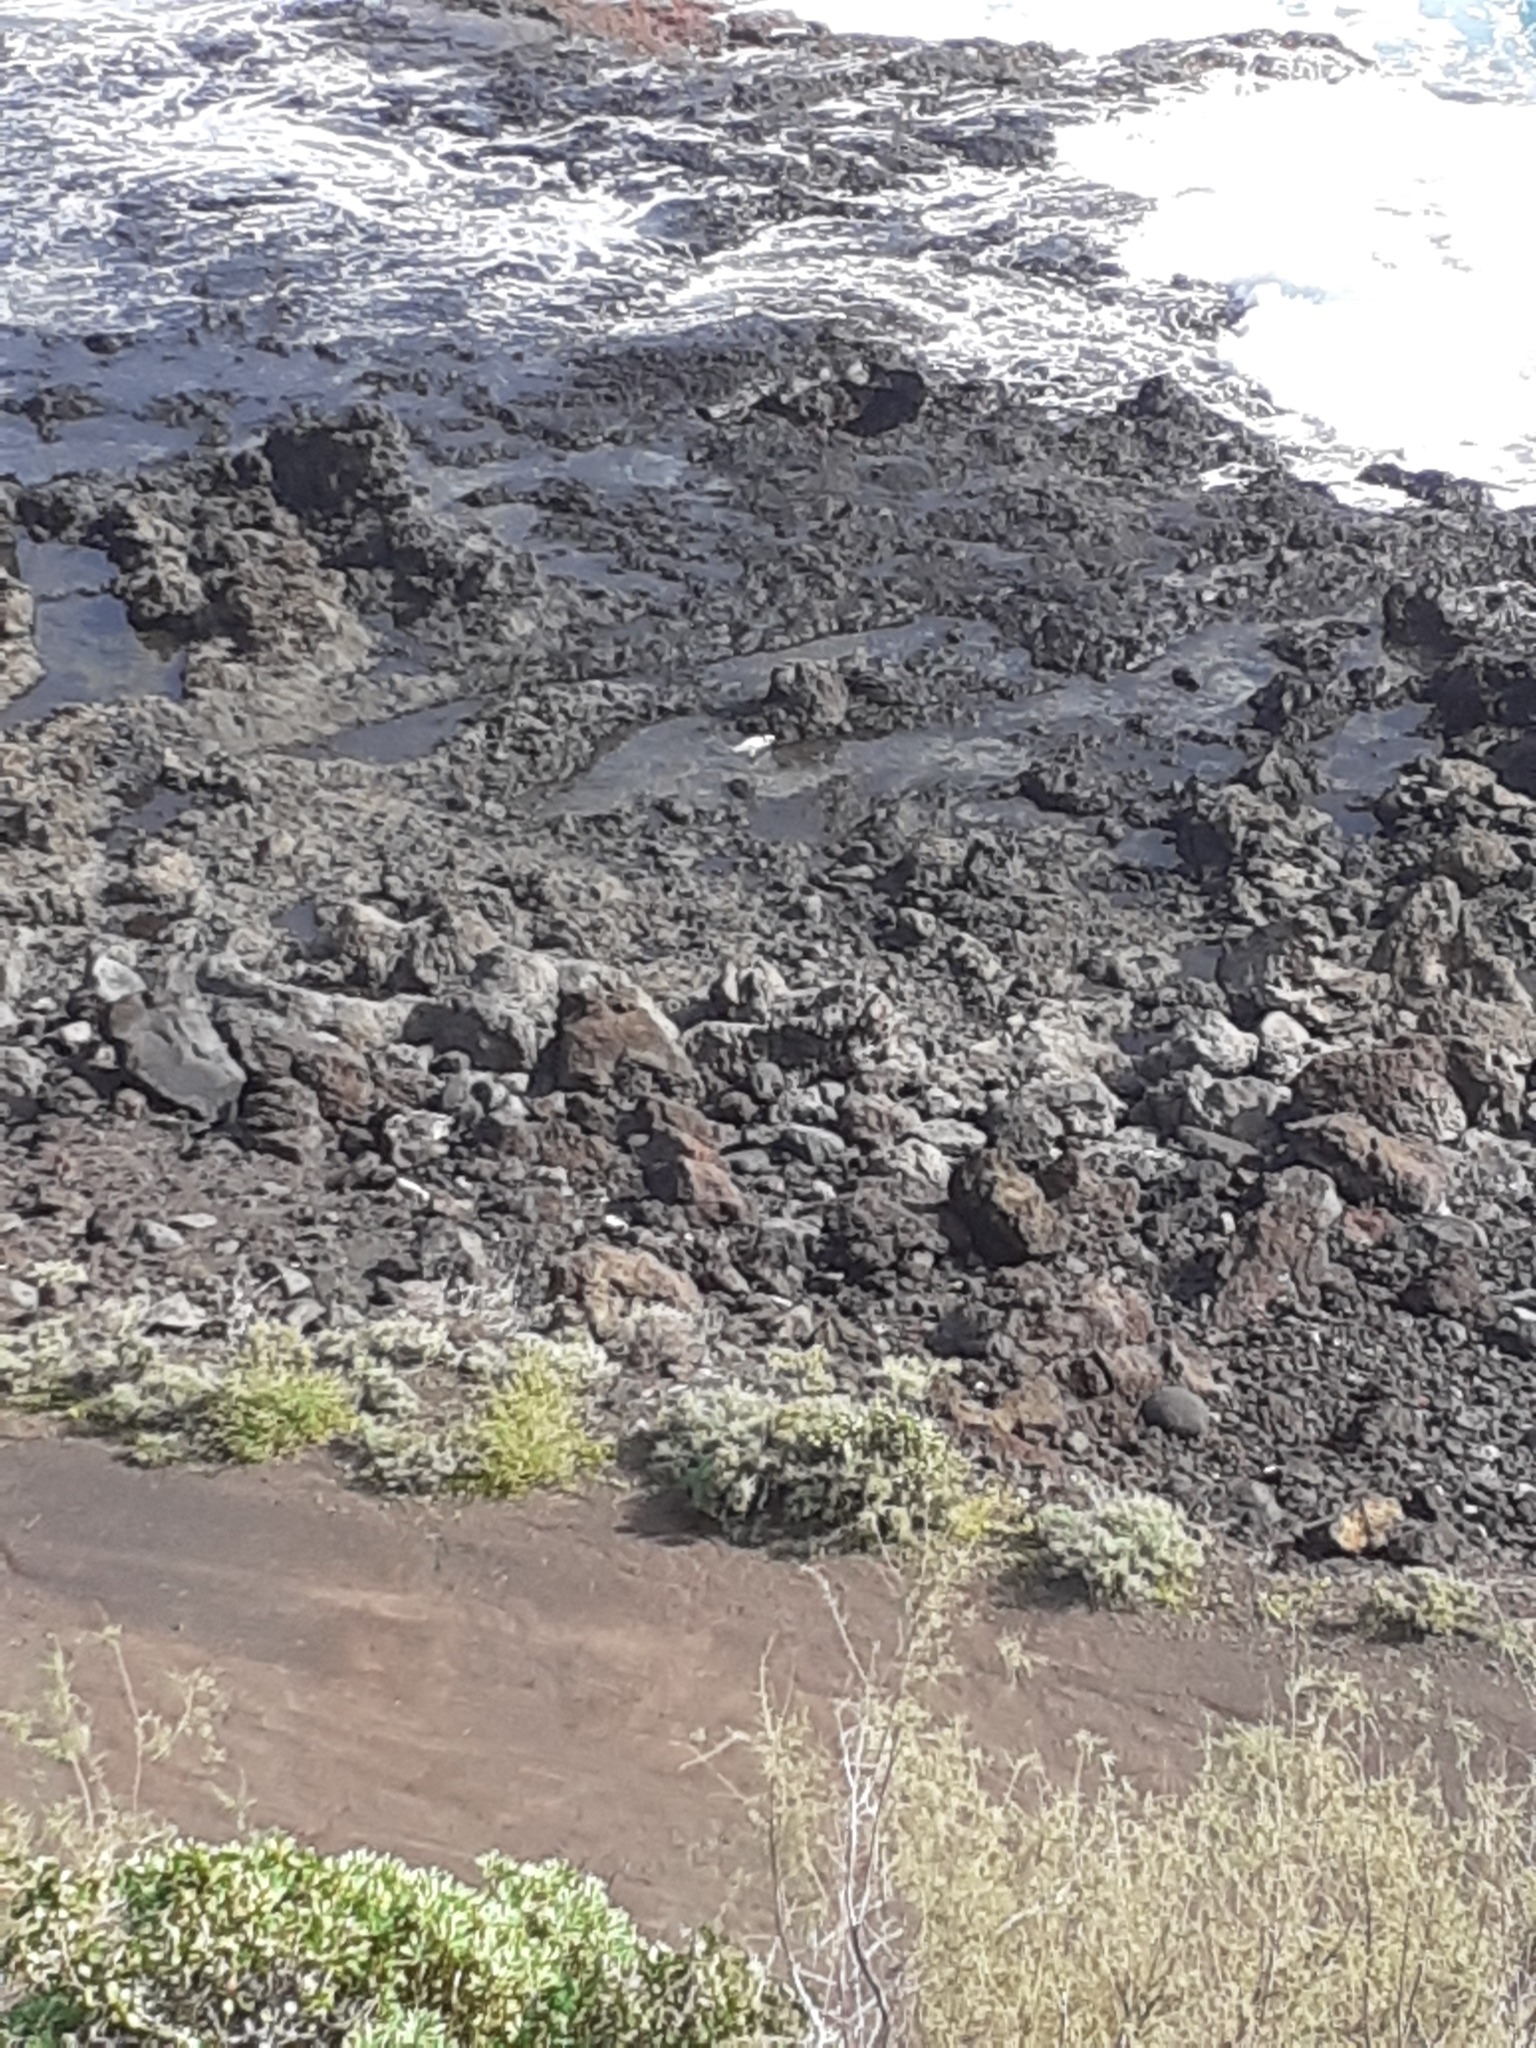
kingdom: Animalia
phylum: Chordata
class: Aves
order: Pelecaniformes
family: Ardeidae
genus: Egretta
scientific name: Egretta garzetta
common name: Little egret
